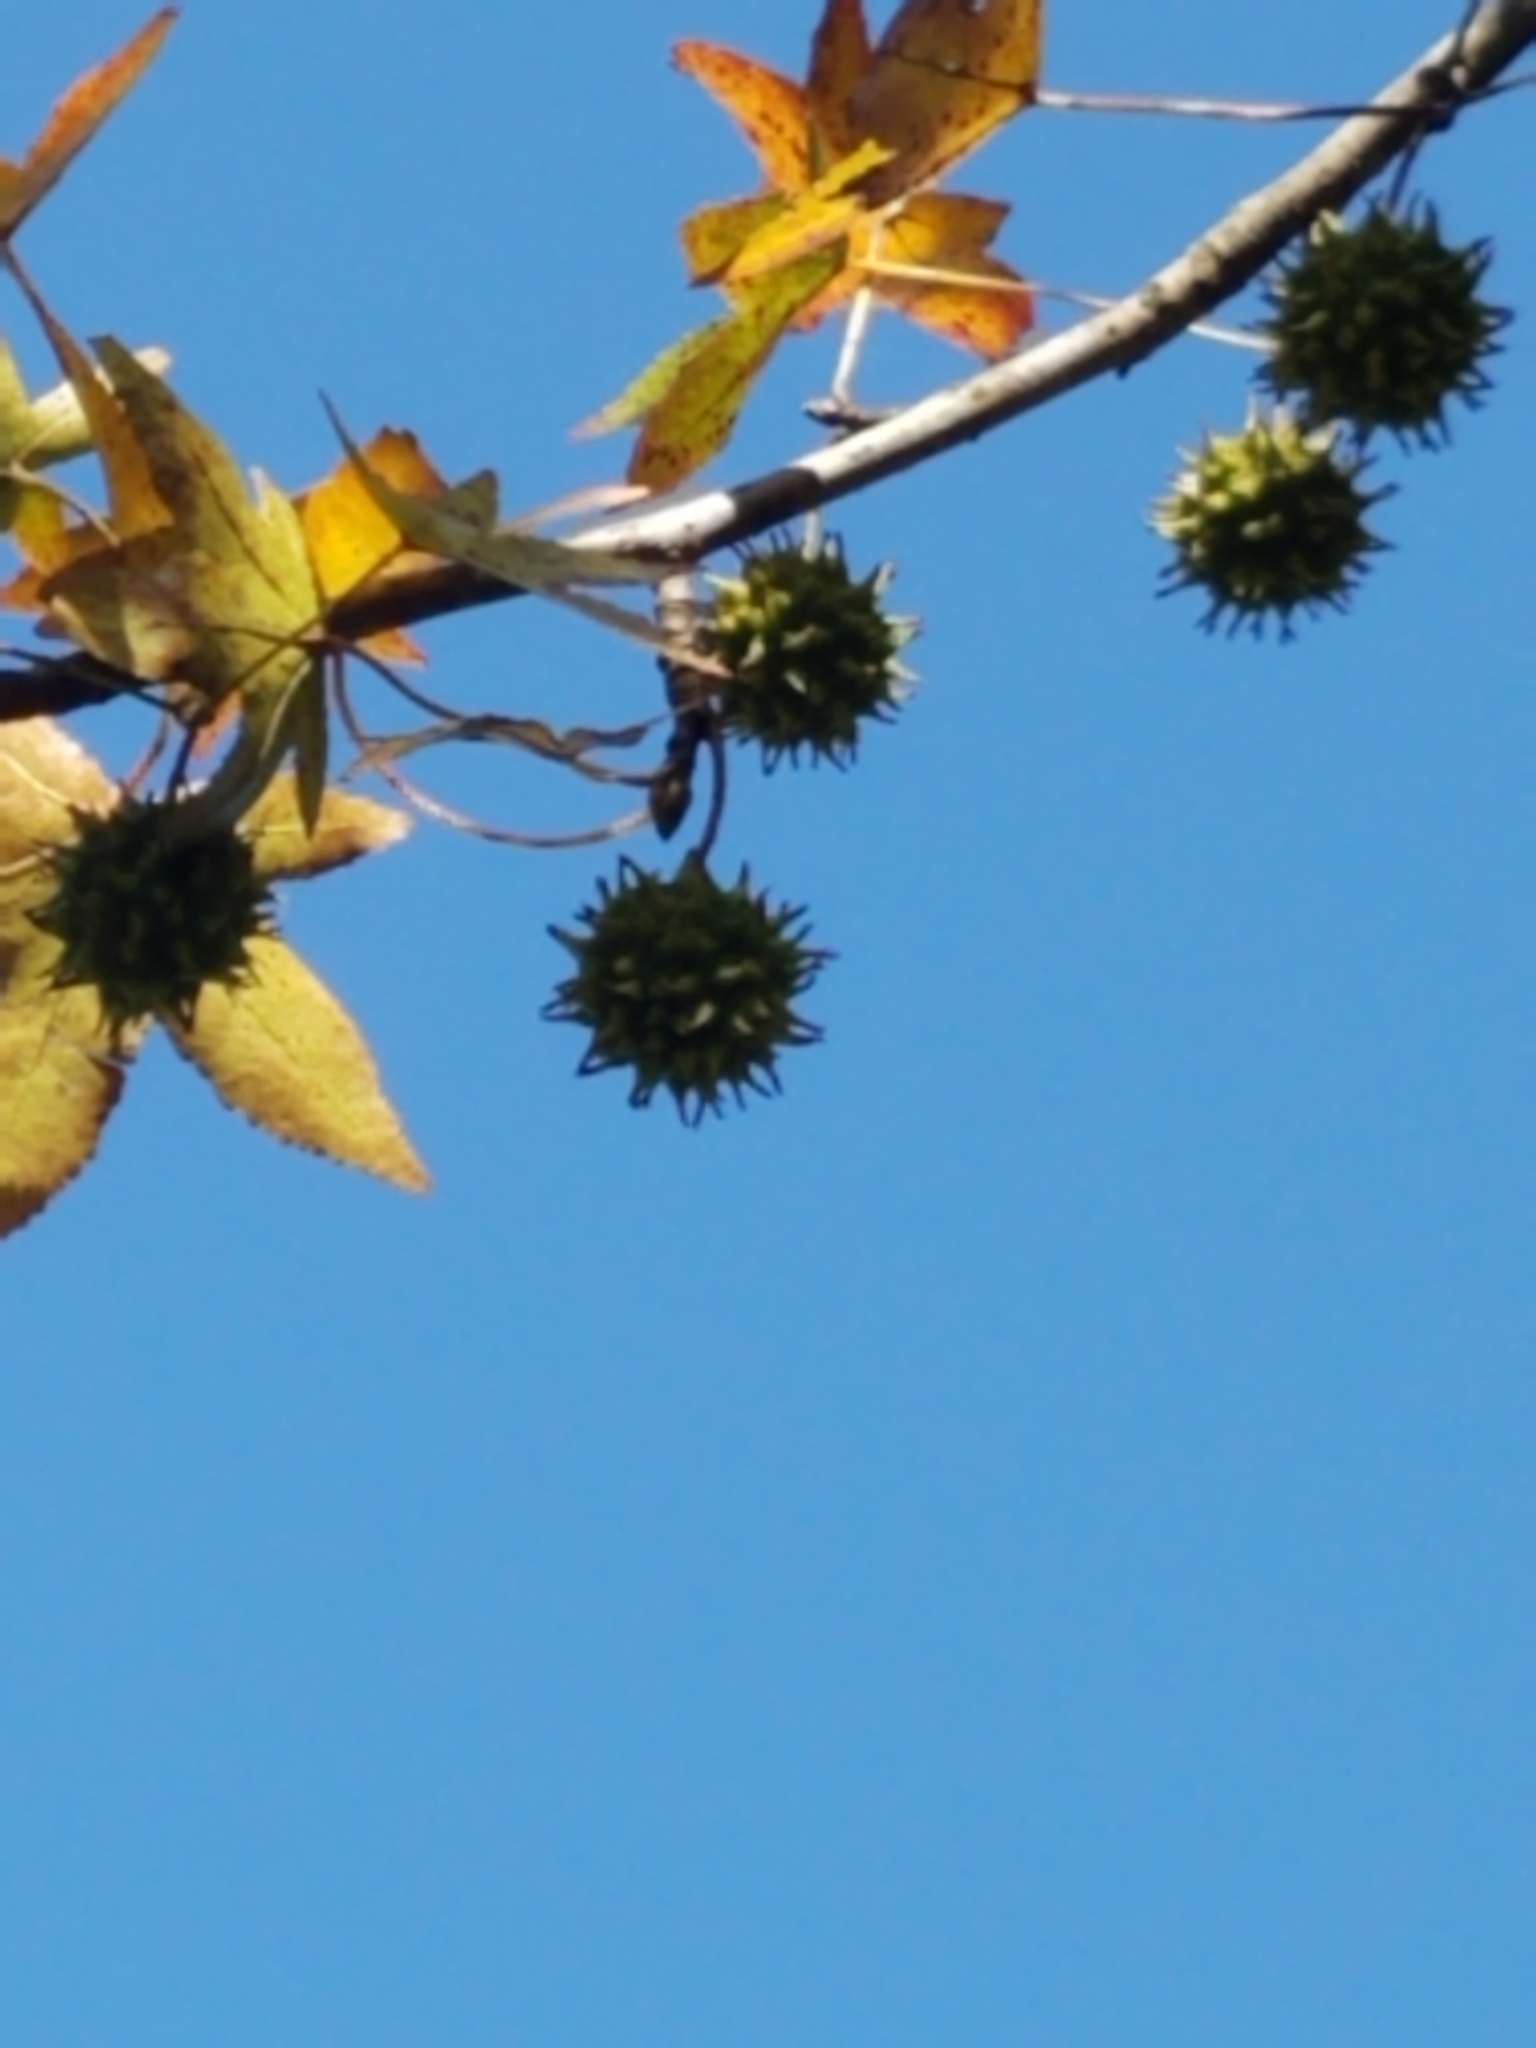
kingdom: Plantae
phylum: Tracheophyta
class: Magnoliopsida
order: Saxifragales
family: Altingiaceae
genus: Liquidambar
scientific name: Liquidambar styraciflua
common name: Sweet gum
